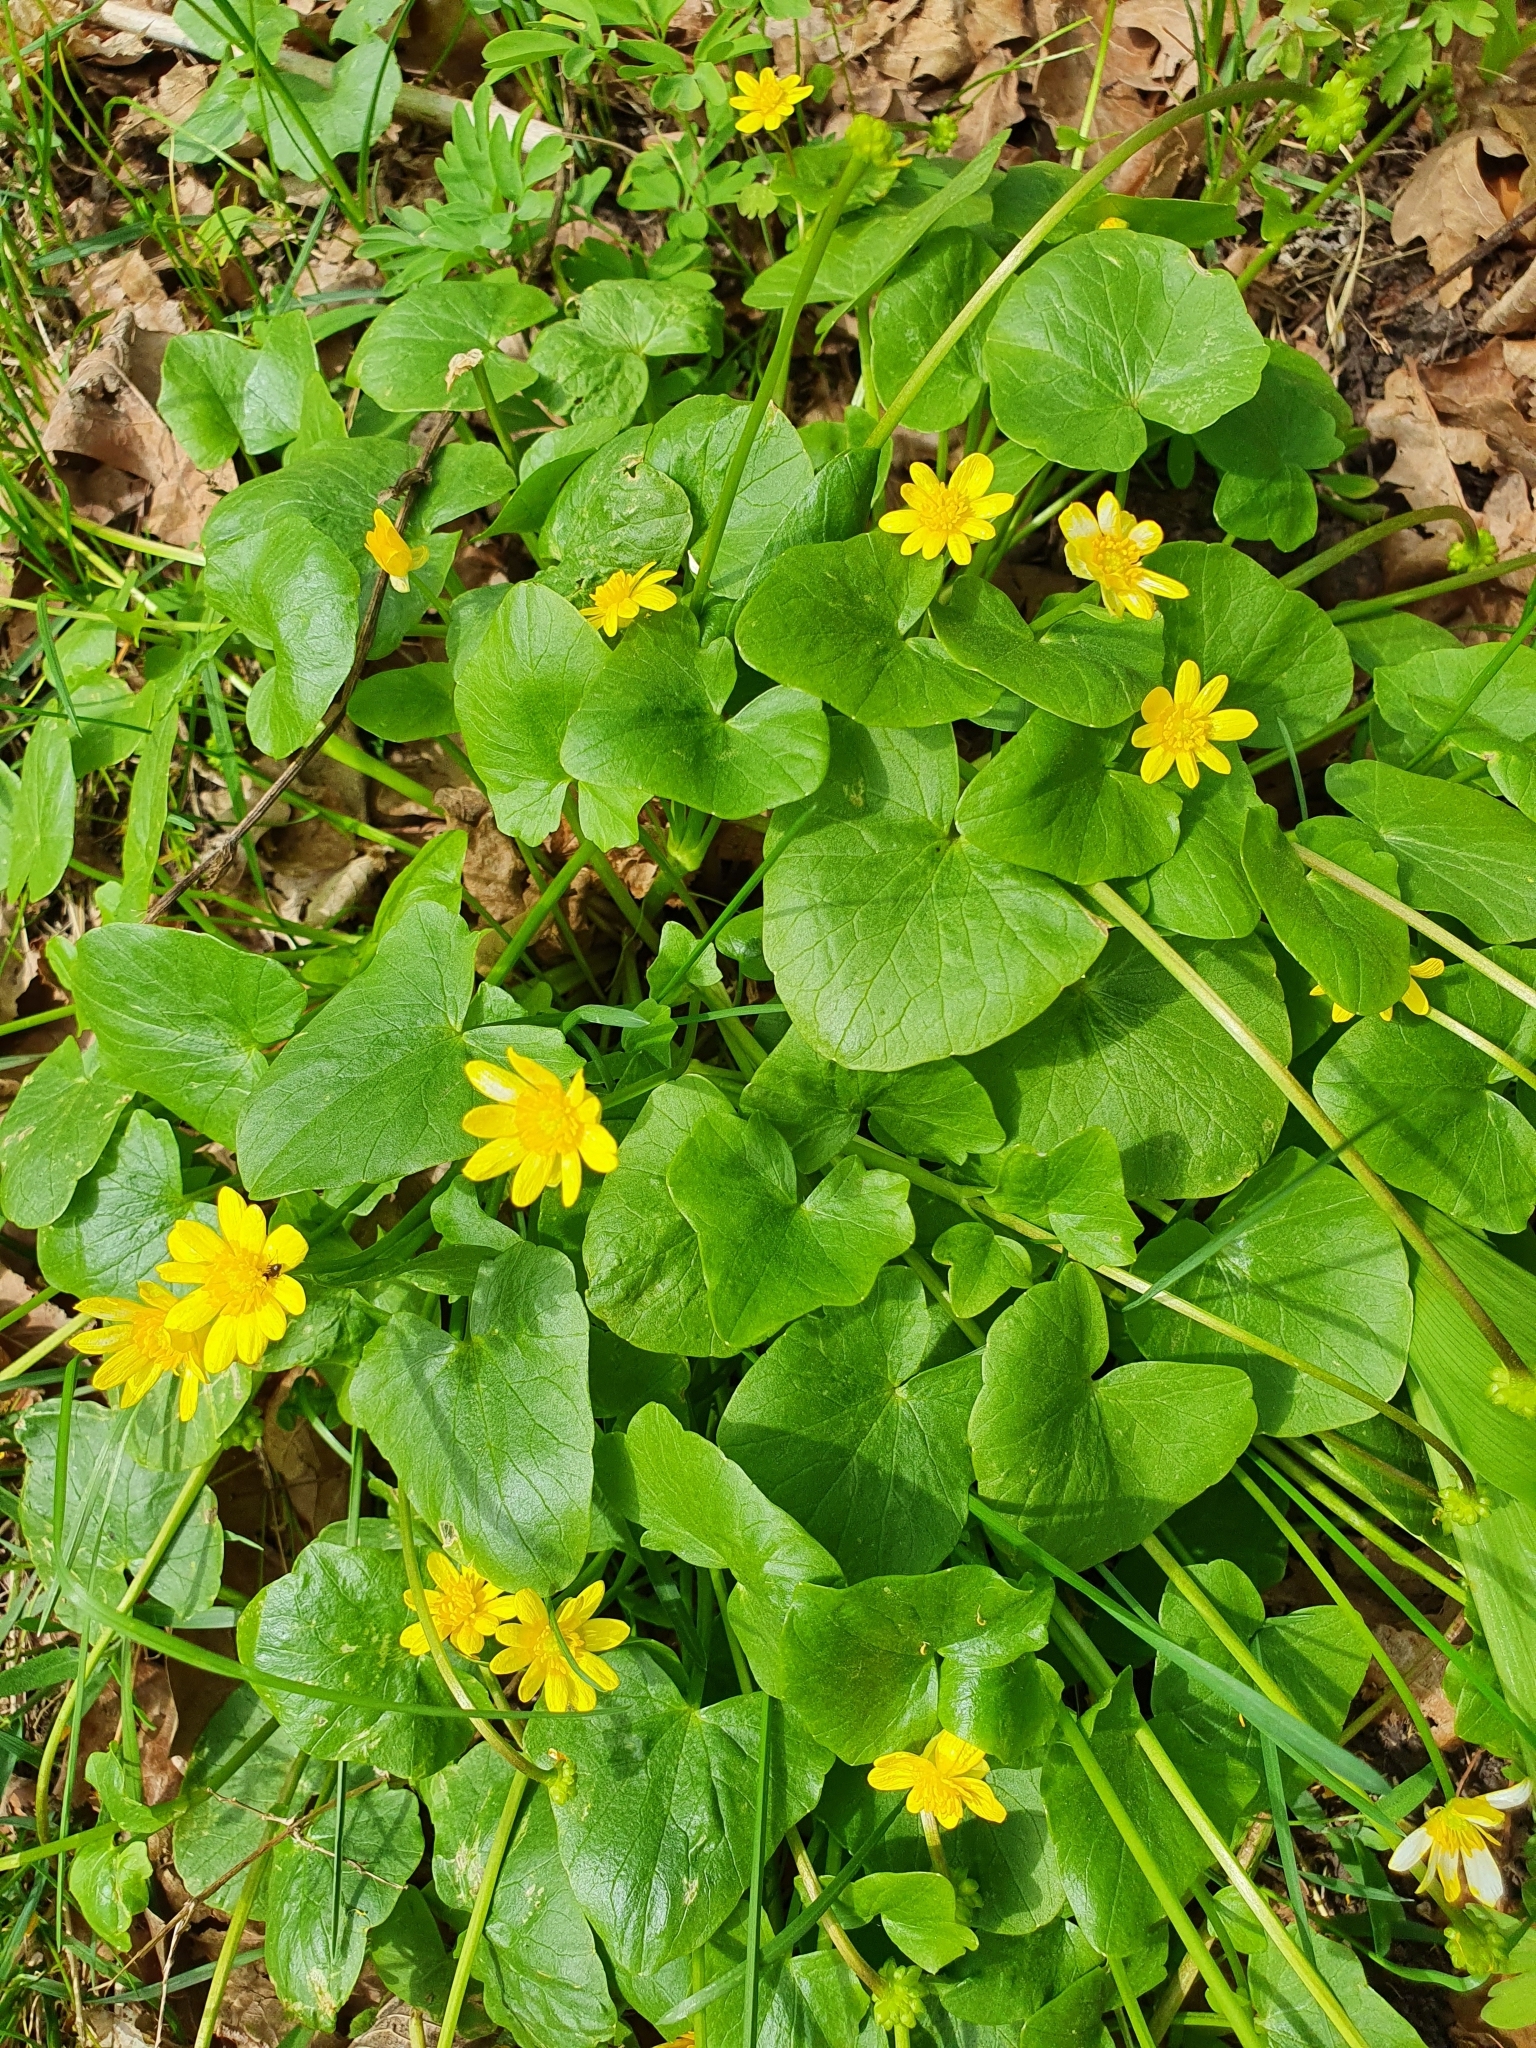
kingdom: Plantae
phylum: Tracheophyta
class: Magnoliopsida
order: Ranunculales
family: Ranunculaceae
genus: Ficaria
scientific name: Ficaria verna
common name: Lesser celandine
